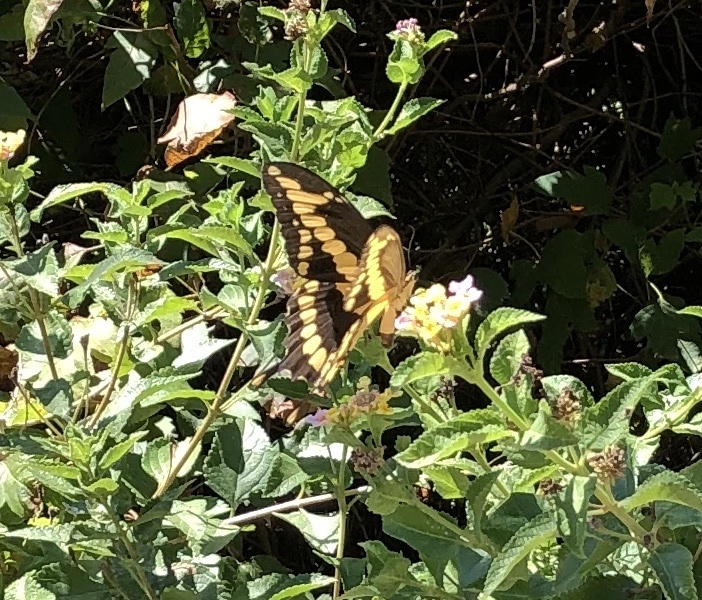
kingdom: Animalia
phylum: Arthropoda
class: Insecta
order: Lepidoptera
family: Papilionidae
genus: Papilio
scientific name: Papilio cresphontes
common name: Giant swallowtail
